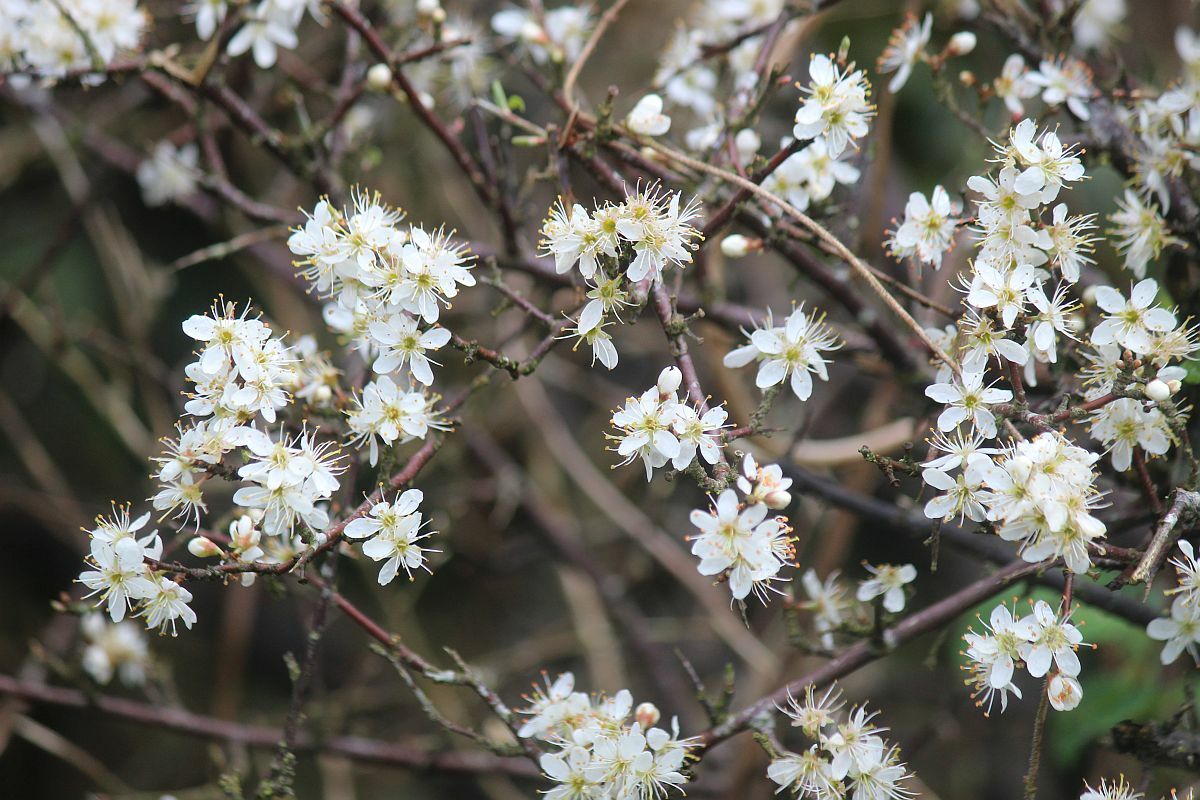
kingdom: Plantae
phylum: Tracheophyta
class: Magnoliopsida
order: Rosales
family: Rosaceae
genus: Prunus
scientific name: Prunus spinosa
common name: Blackthorn
